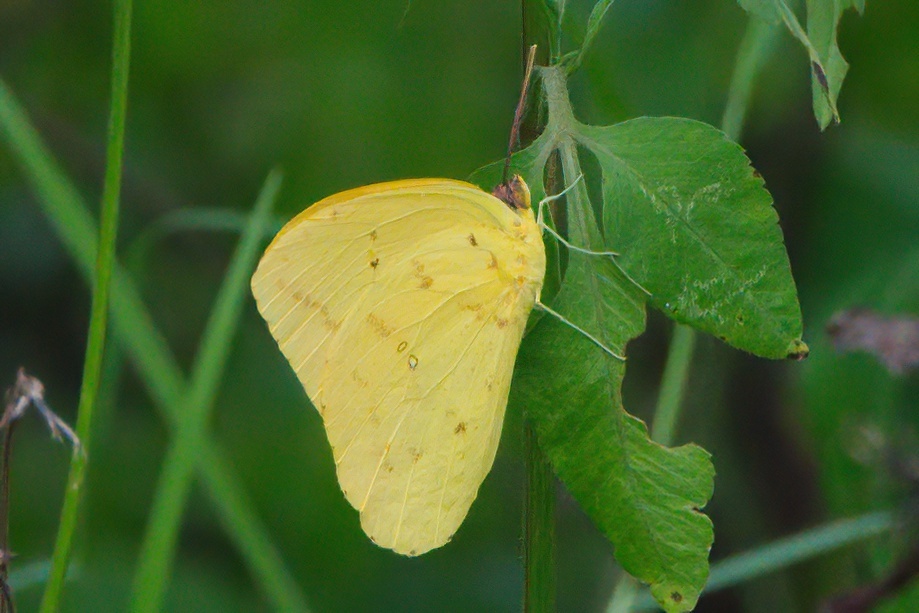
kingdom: Animalia
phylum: Arthropoda
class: Insecta
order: Lepidoptera
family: Pieridae
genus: Phoebis
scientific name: Phoebis agarithe
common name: Large orange sulphur
